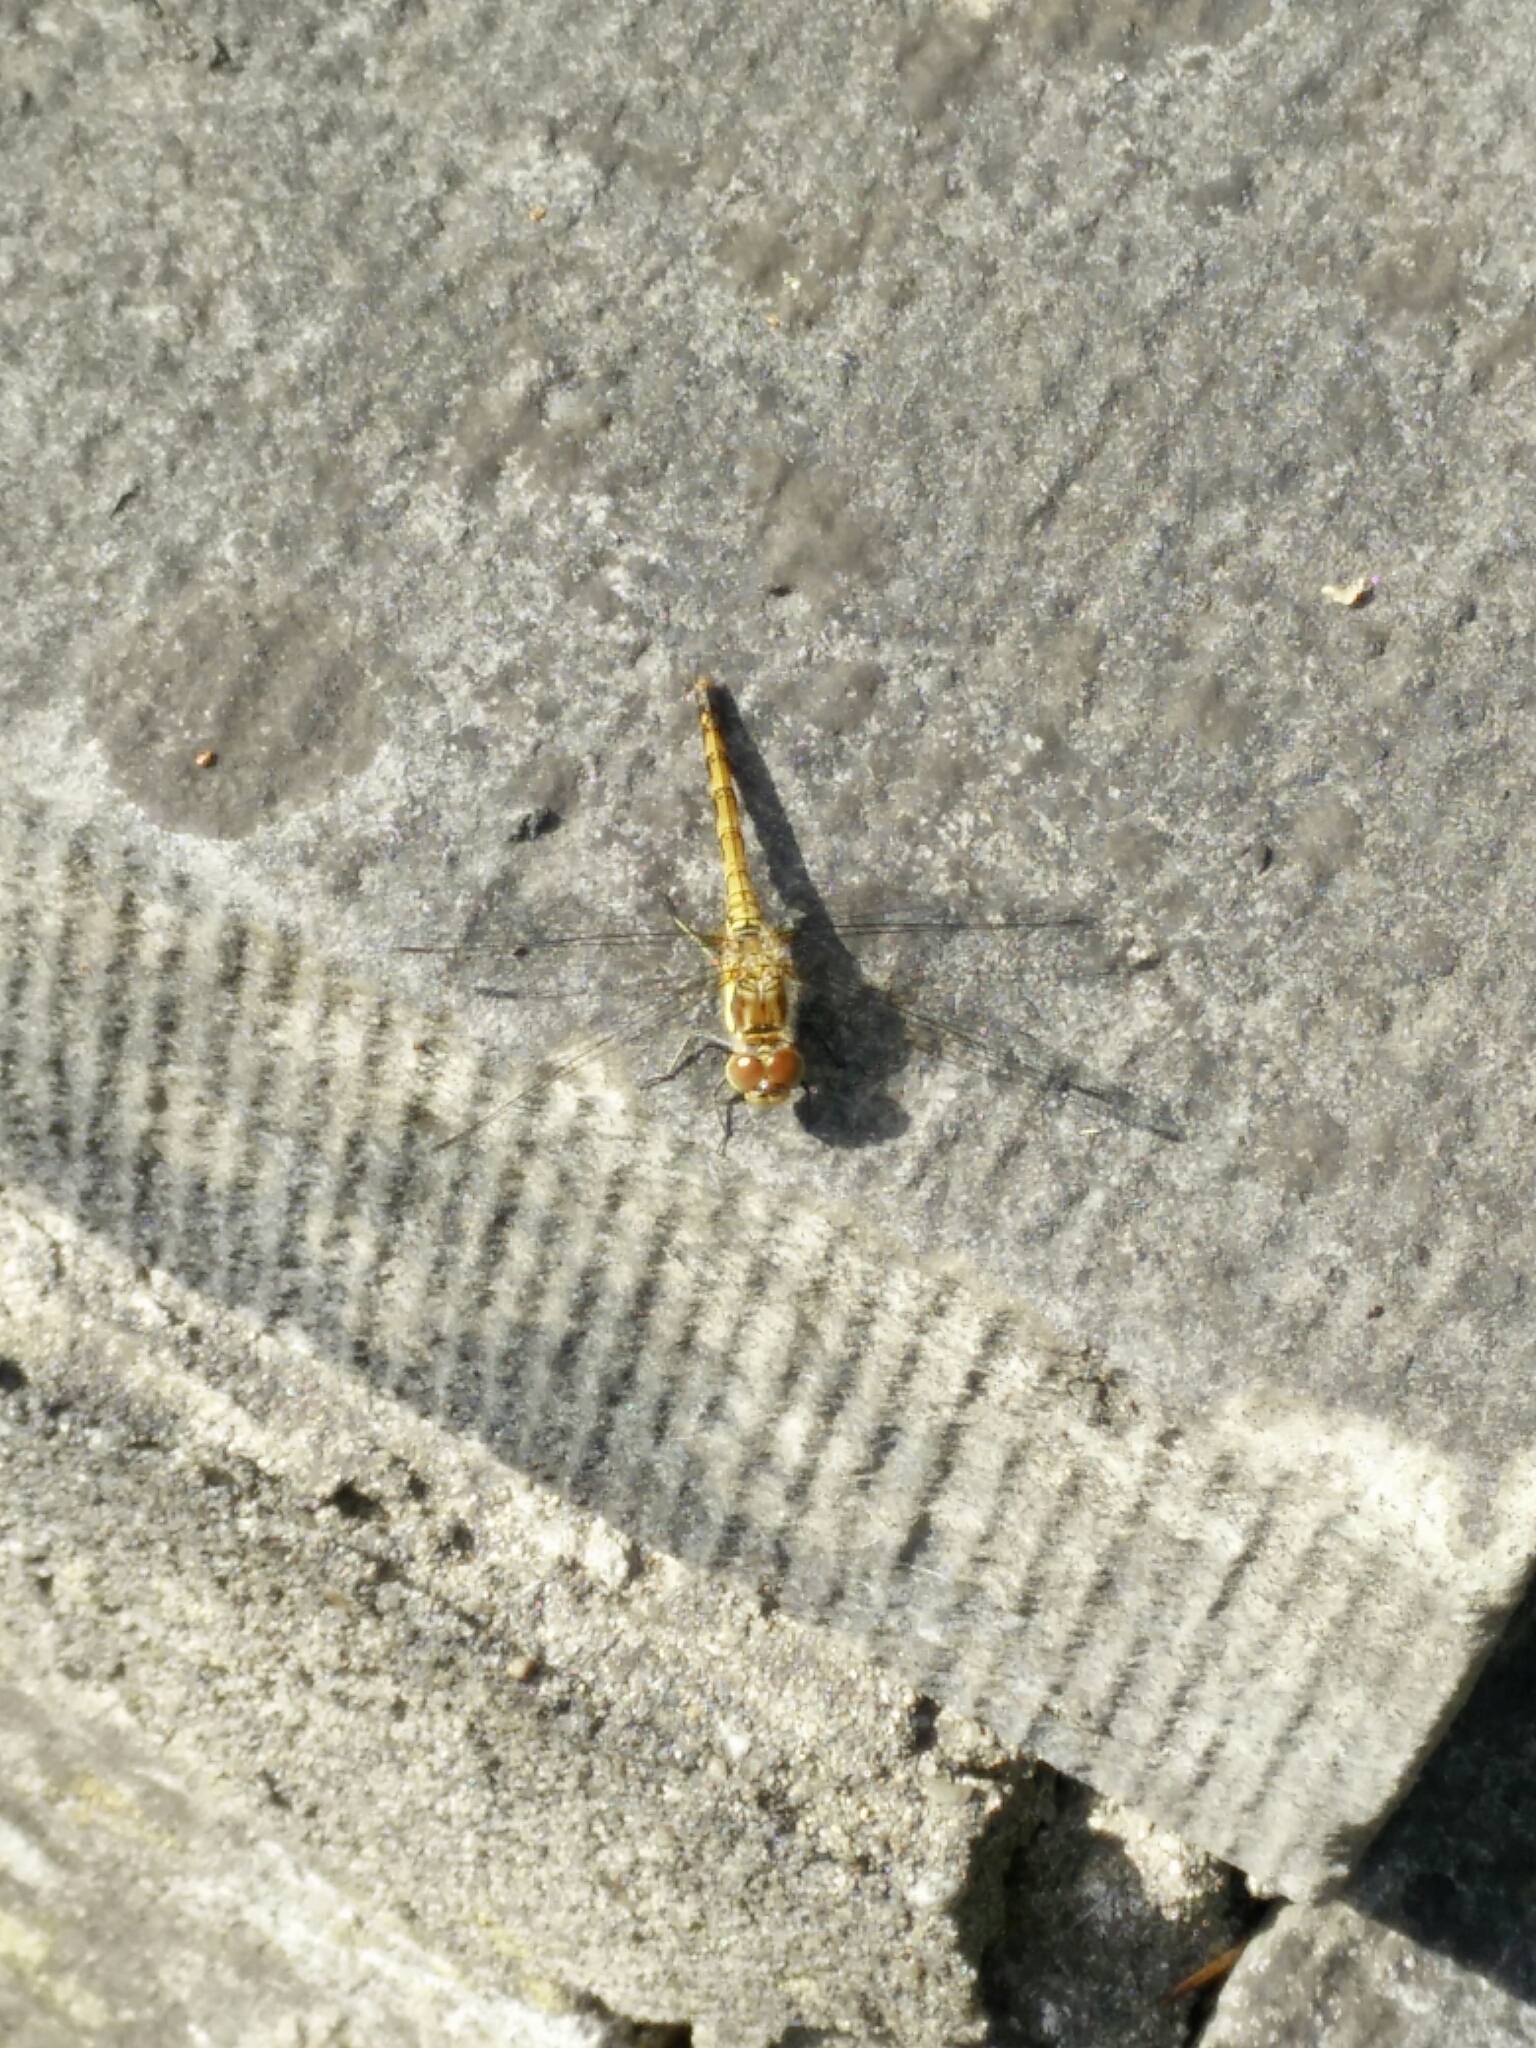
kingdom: Animalia
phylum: Arthropoda
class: Insecta
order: Odonata
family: Libellulidae
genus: Sympetrum
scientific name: Sympetrum striolatum
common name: Common darter
